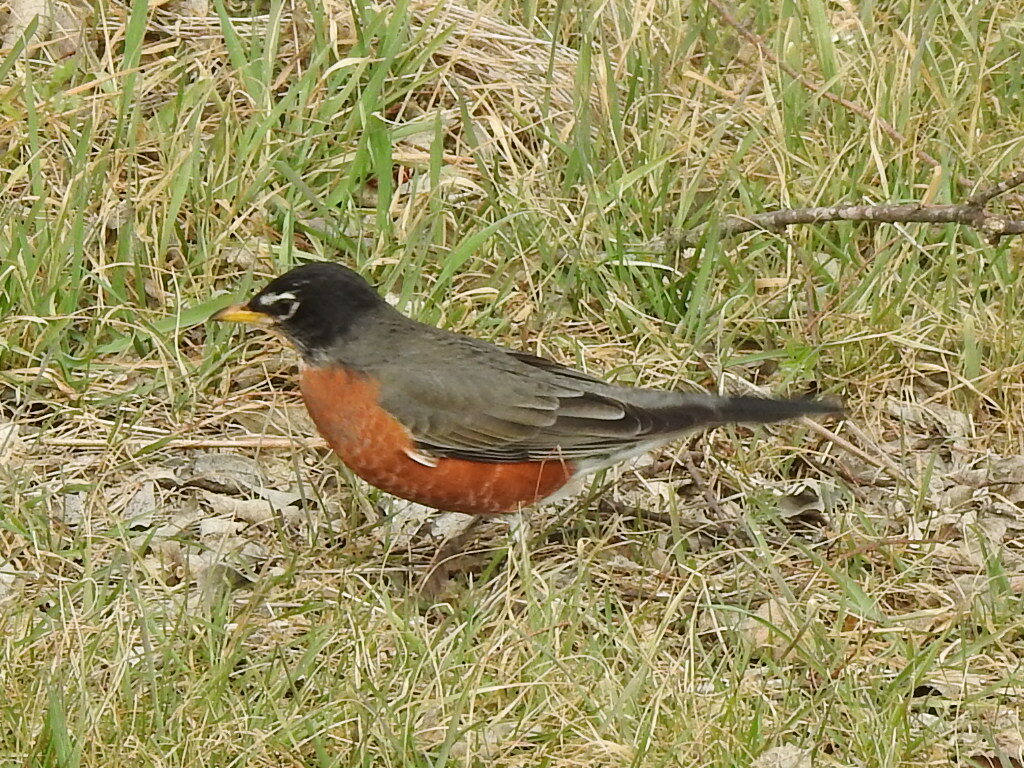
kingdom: Animalia
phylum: Chordata
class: Aves
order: Passeriformes
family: Turdidae
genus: Turdus
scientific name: Turdus migratorius
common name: American robin
